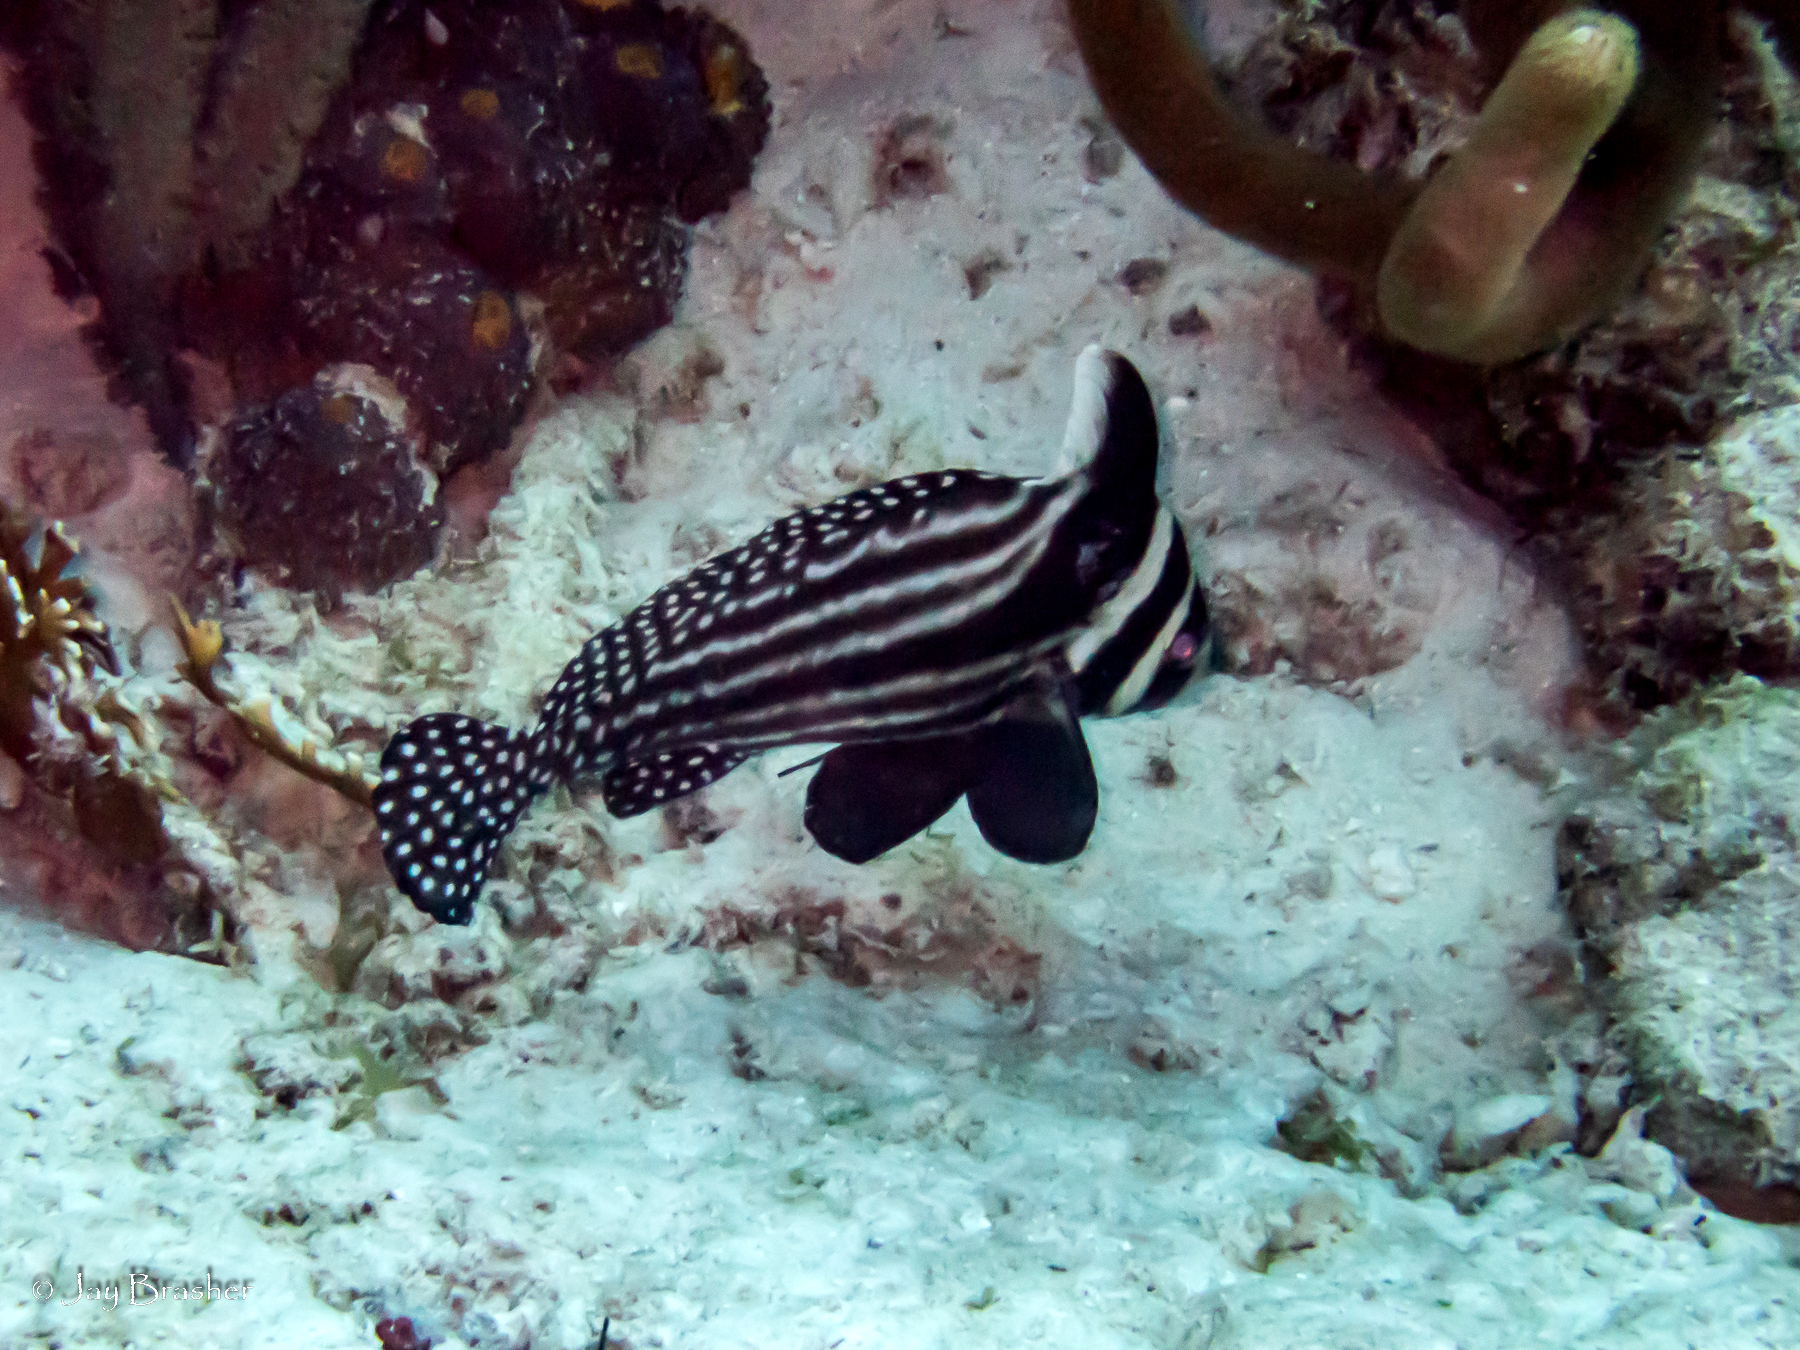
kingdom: Animalia
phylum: Chordata
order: Perciformes
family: Sciaenidae
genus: Equetus
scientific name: Equetus punctatus
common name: Spotted drum
